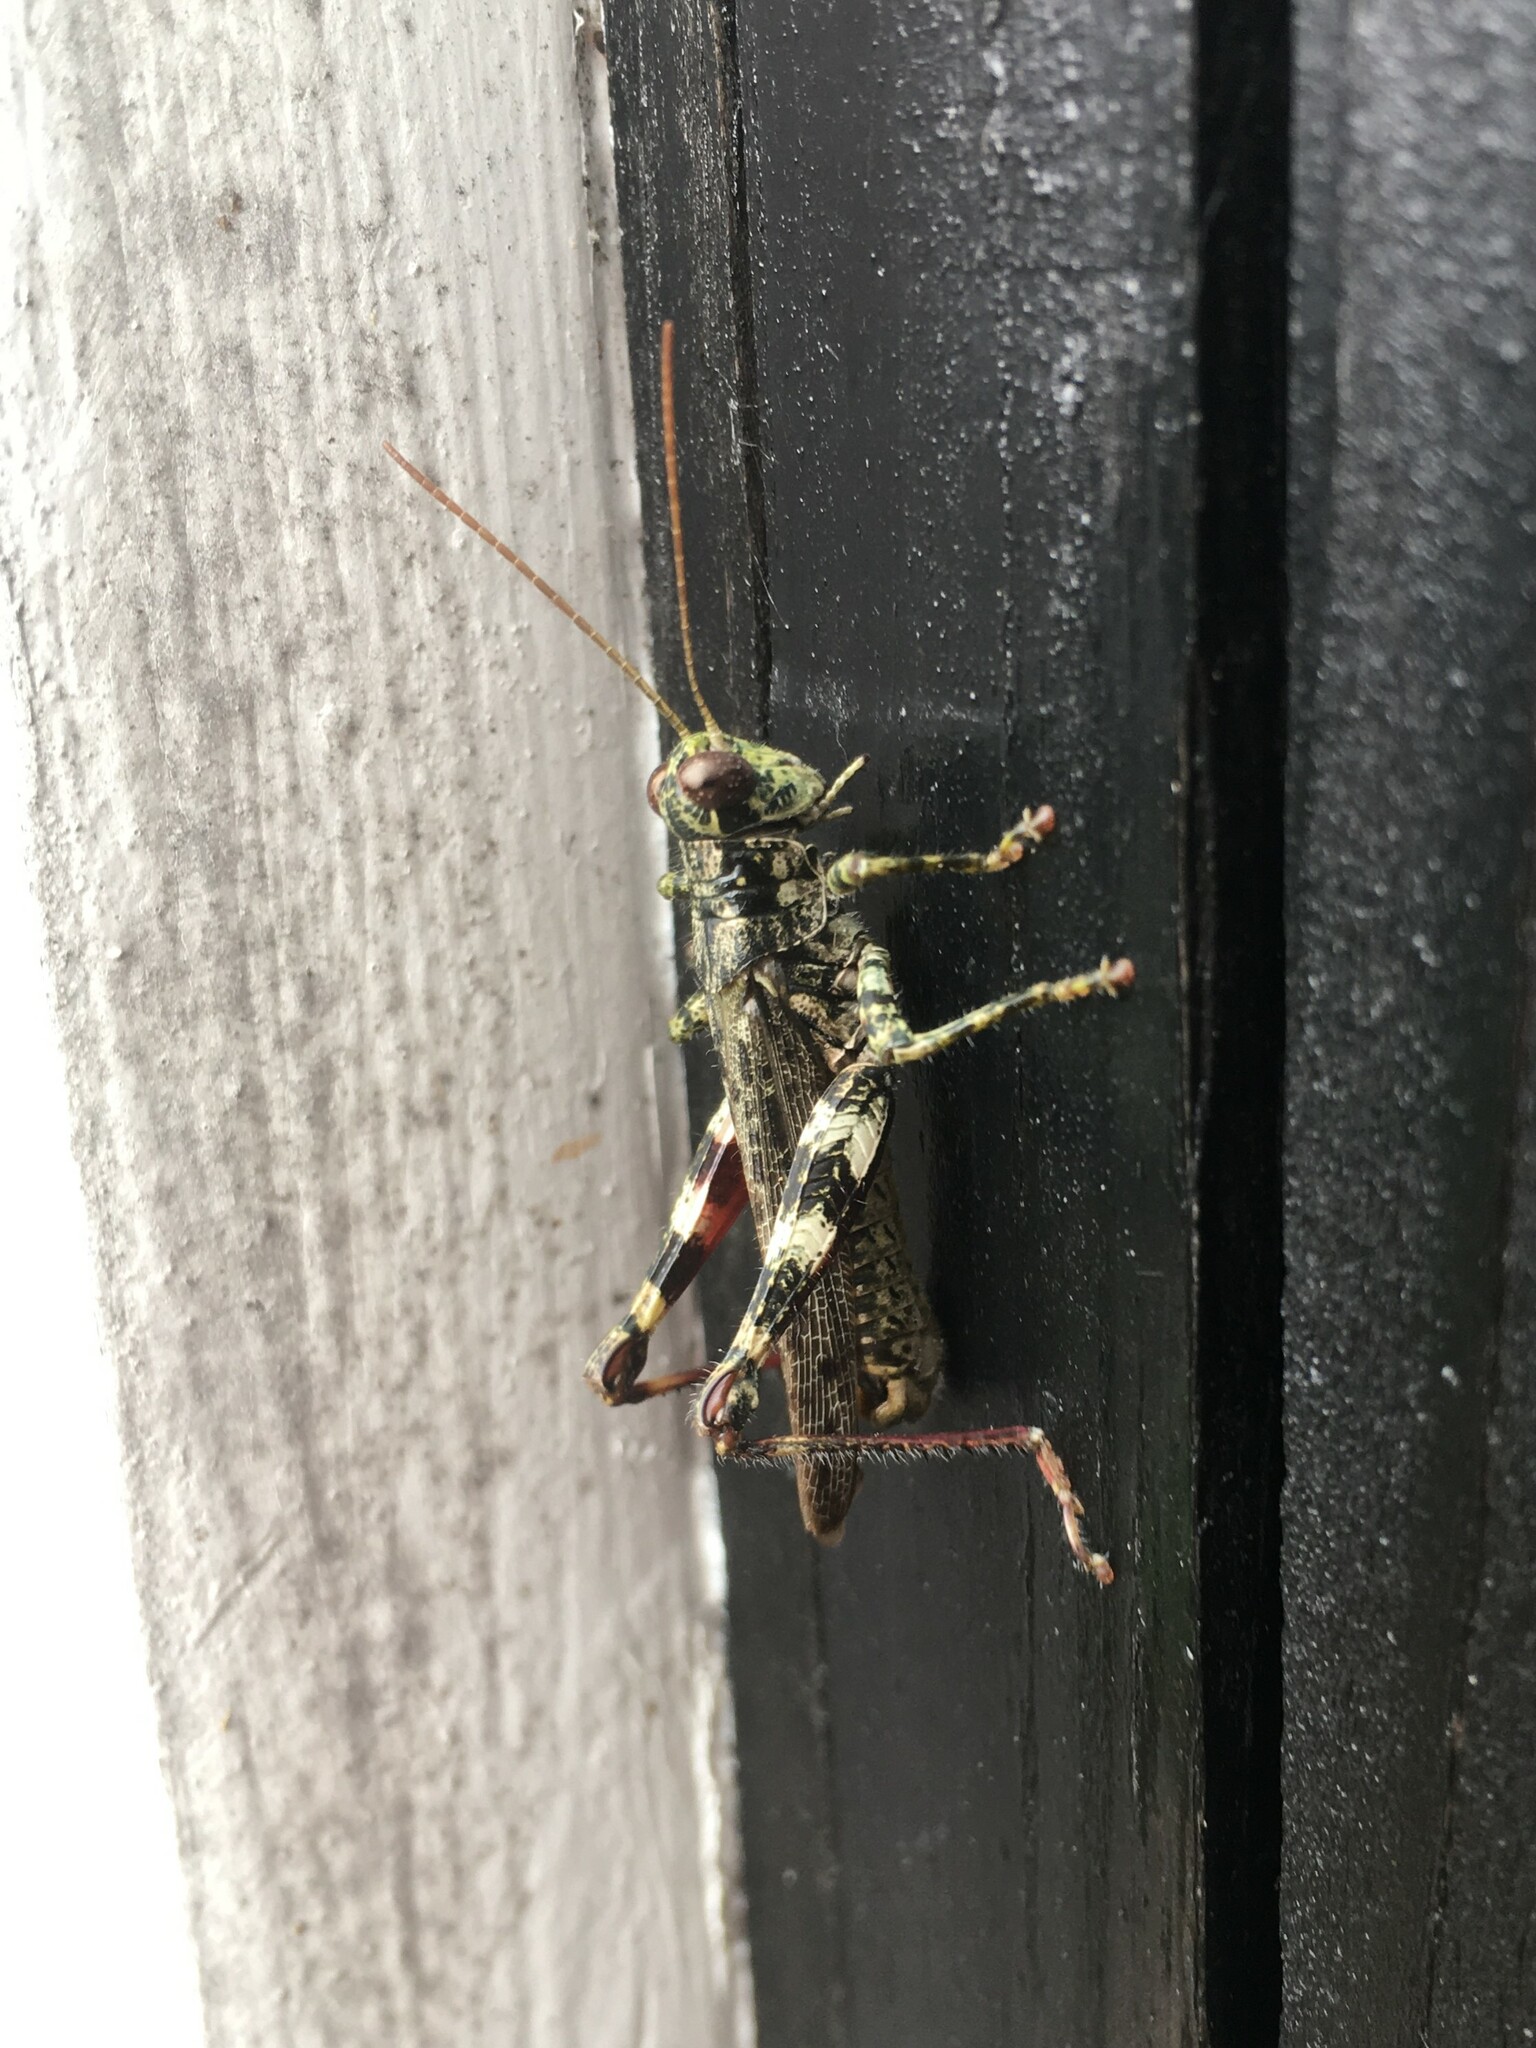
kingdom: Animalia
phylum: Arthropoda
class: Insecta
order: Orthoptera
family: Acrididae
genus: Melanoplus
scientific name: Melanoplus punctulatus
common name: Pine-tree spur-throat grasshopper
